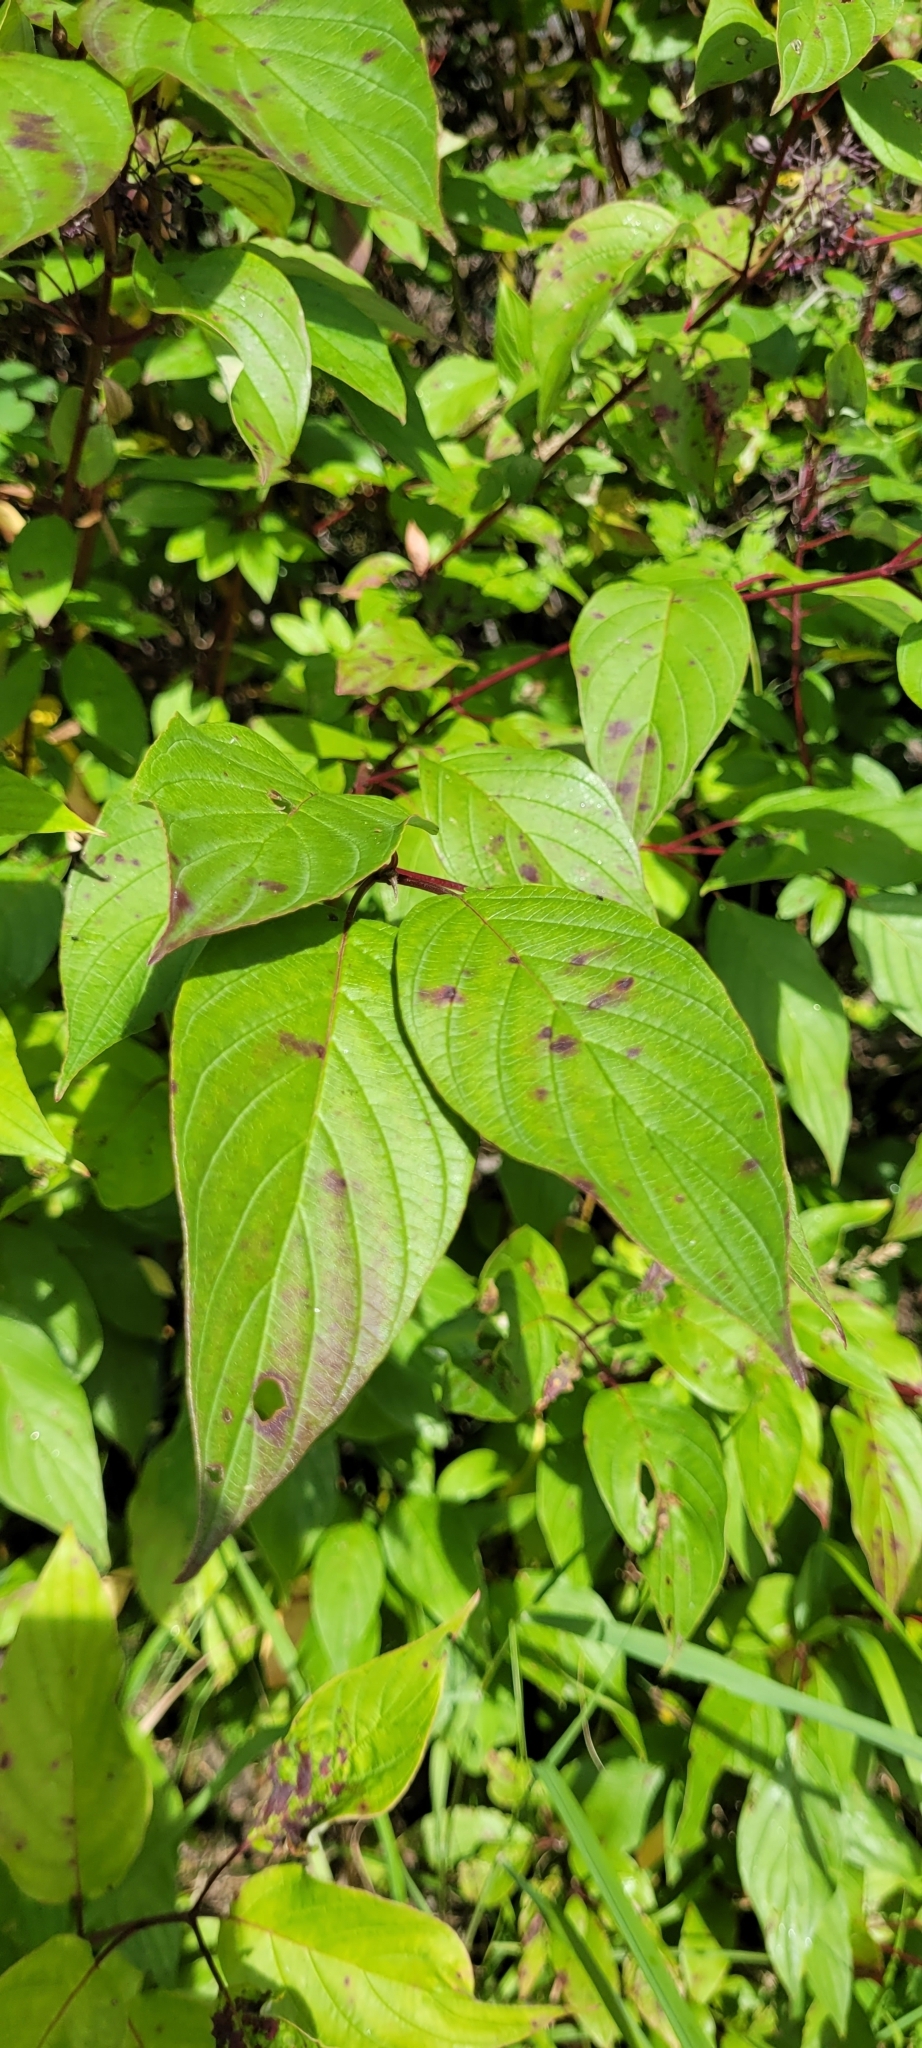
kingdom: Plantae
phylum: Tracheophyta
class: Magnoliopsida
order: Cornales
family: Cornaceae
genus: Cornus
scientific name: Cornus sericea
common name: Red-osier dogwood
